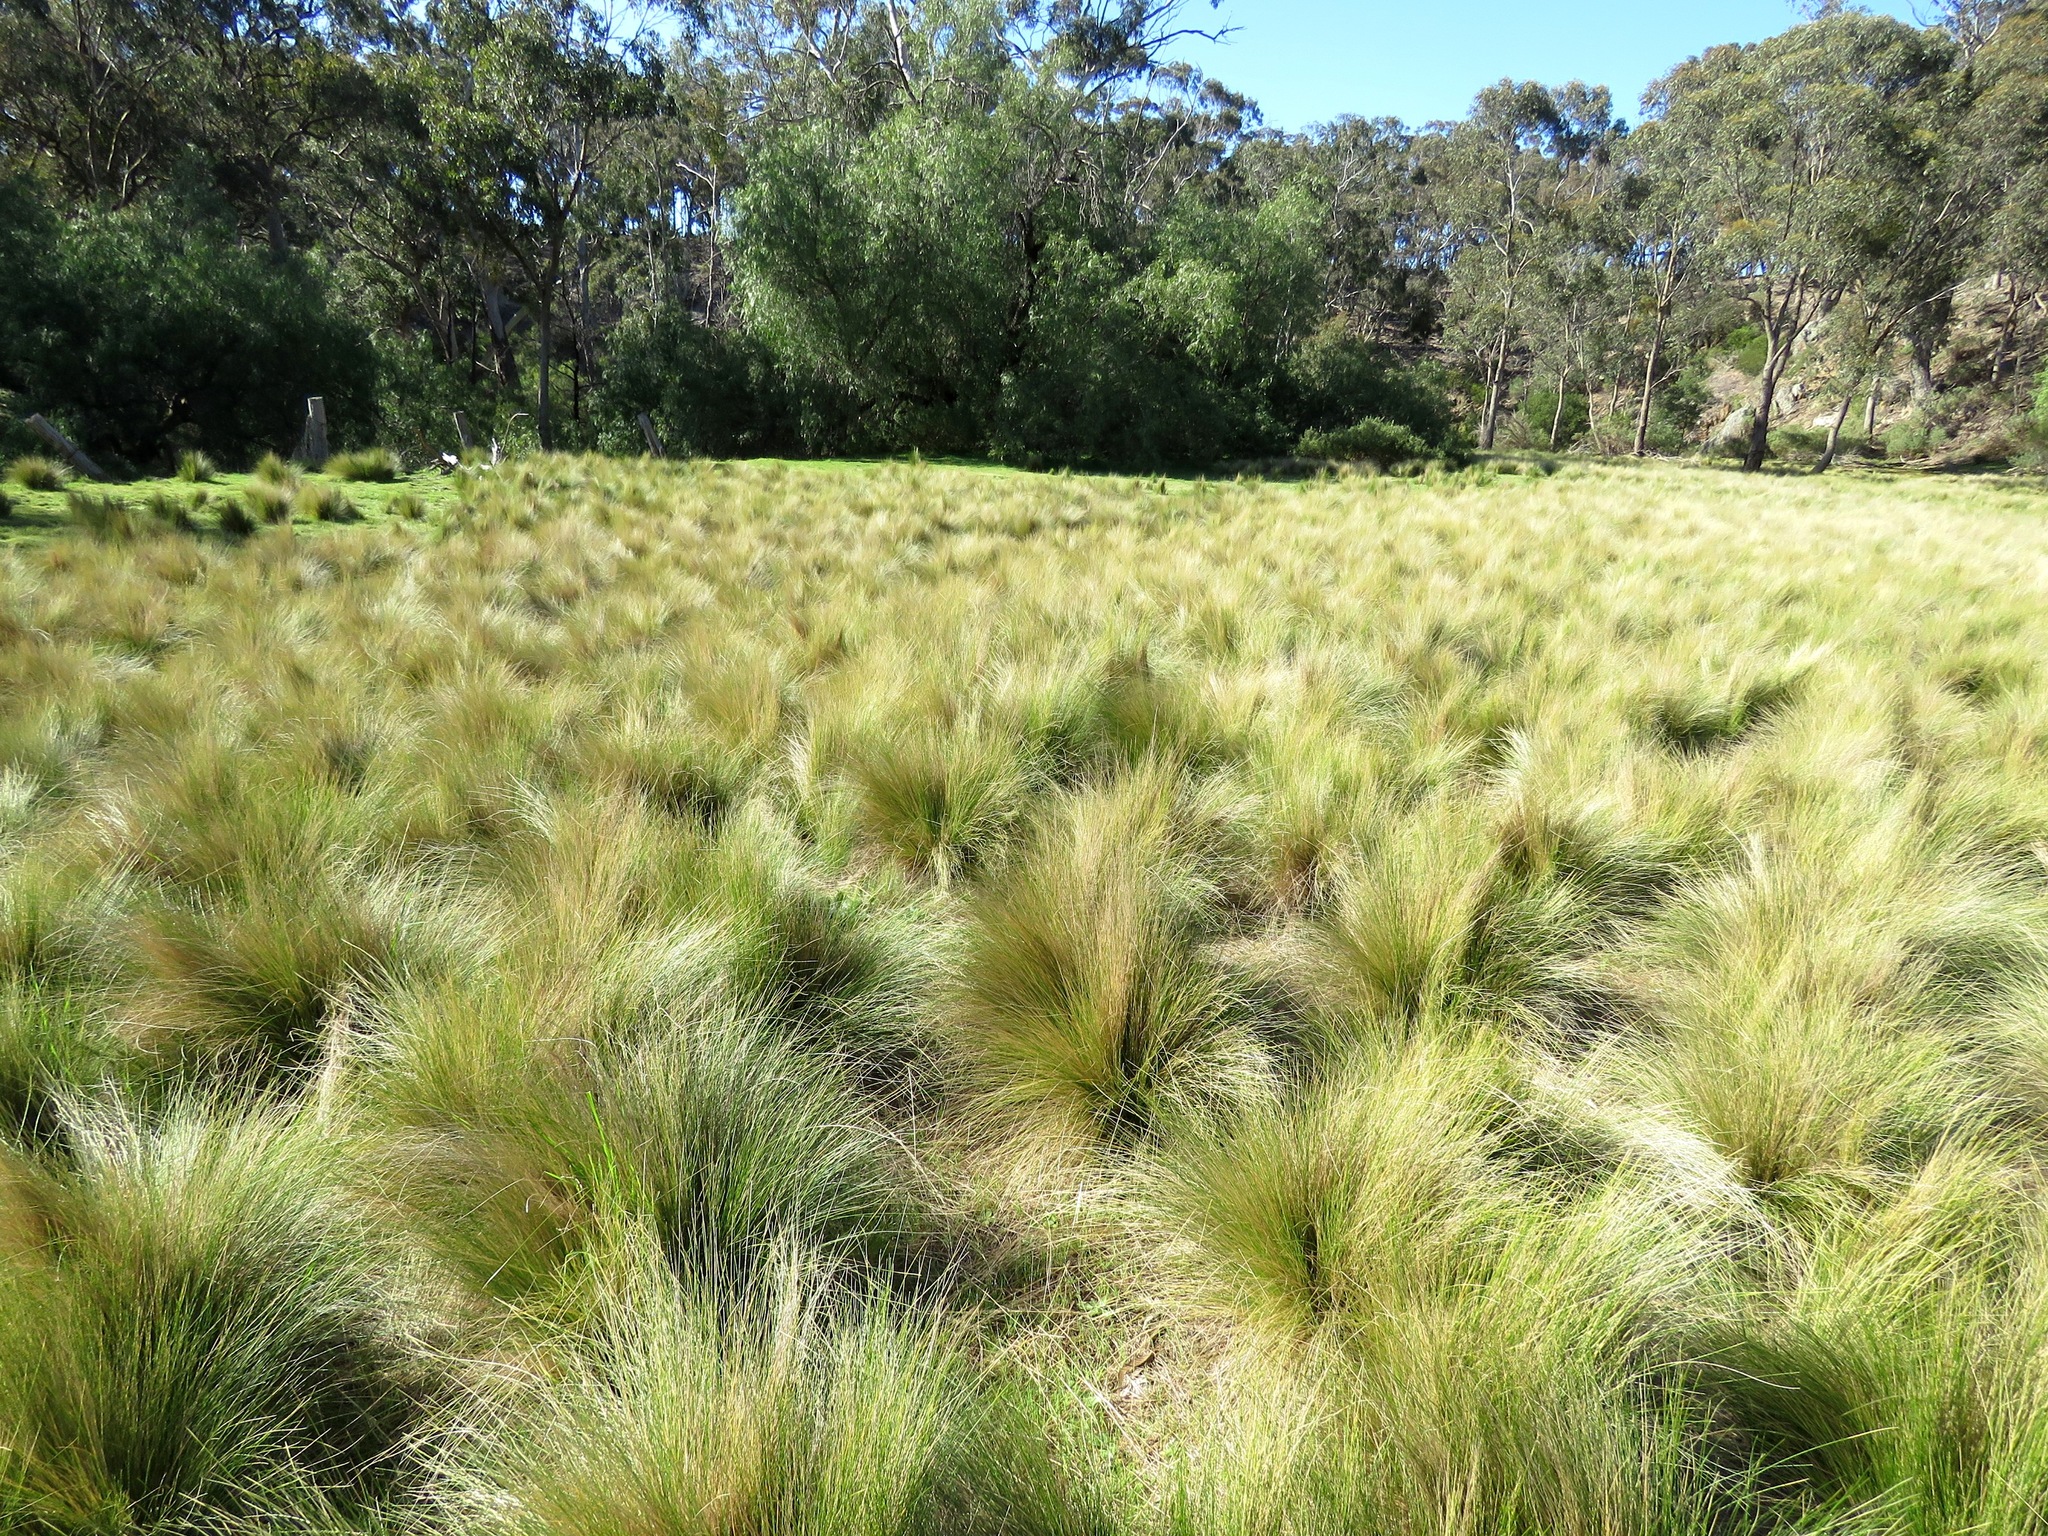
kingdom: Plantae
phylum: Tracheophyta
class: Liliopsida
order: Poales
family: Poaceae
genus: Nassella
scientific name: Nassella trichotoma
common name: Serrated tussock grass
